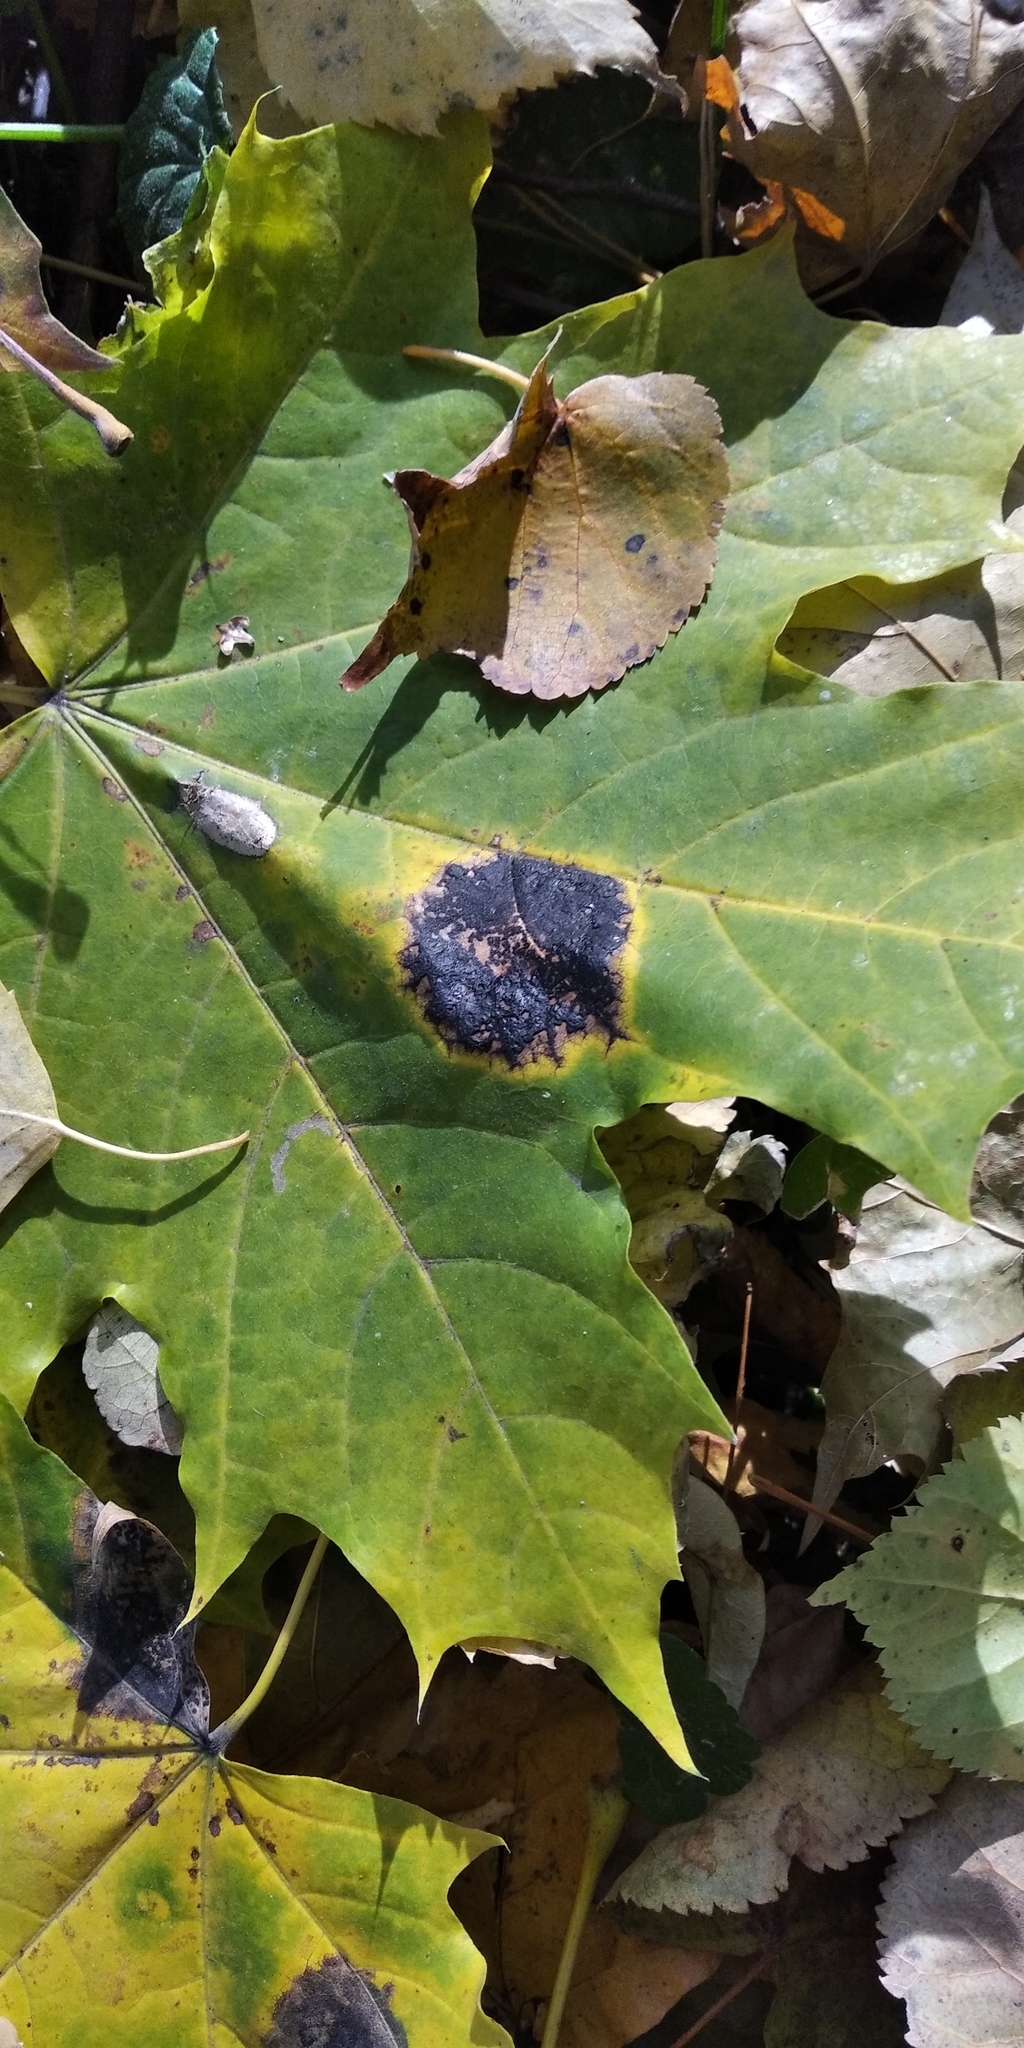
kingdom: Fungi
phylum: Ascomycota
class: Leotiomycetes
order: Rhytismatales
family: Rhytismataceae
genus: Rhytisma
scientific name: Rhytisma acerinum
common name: European tar spot
